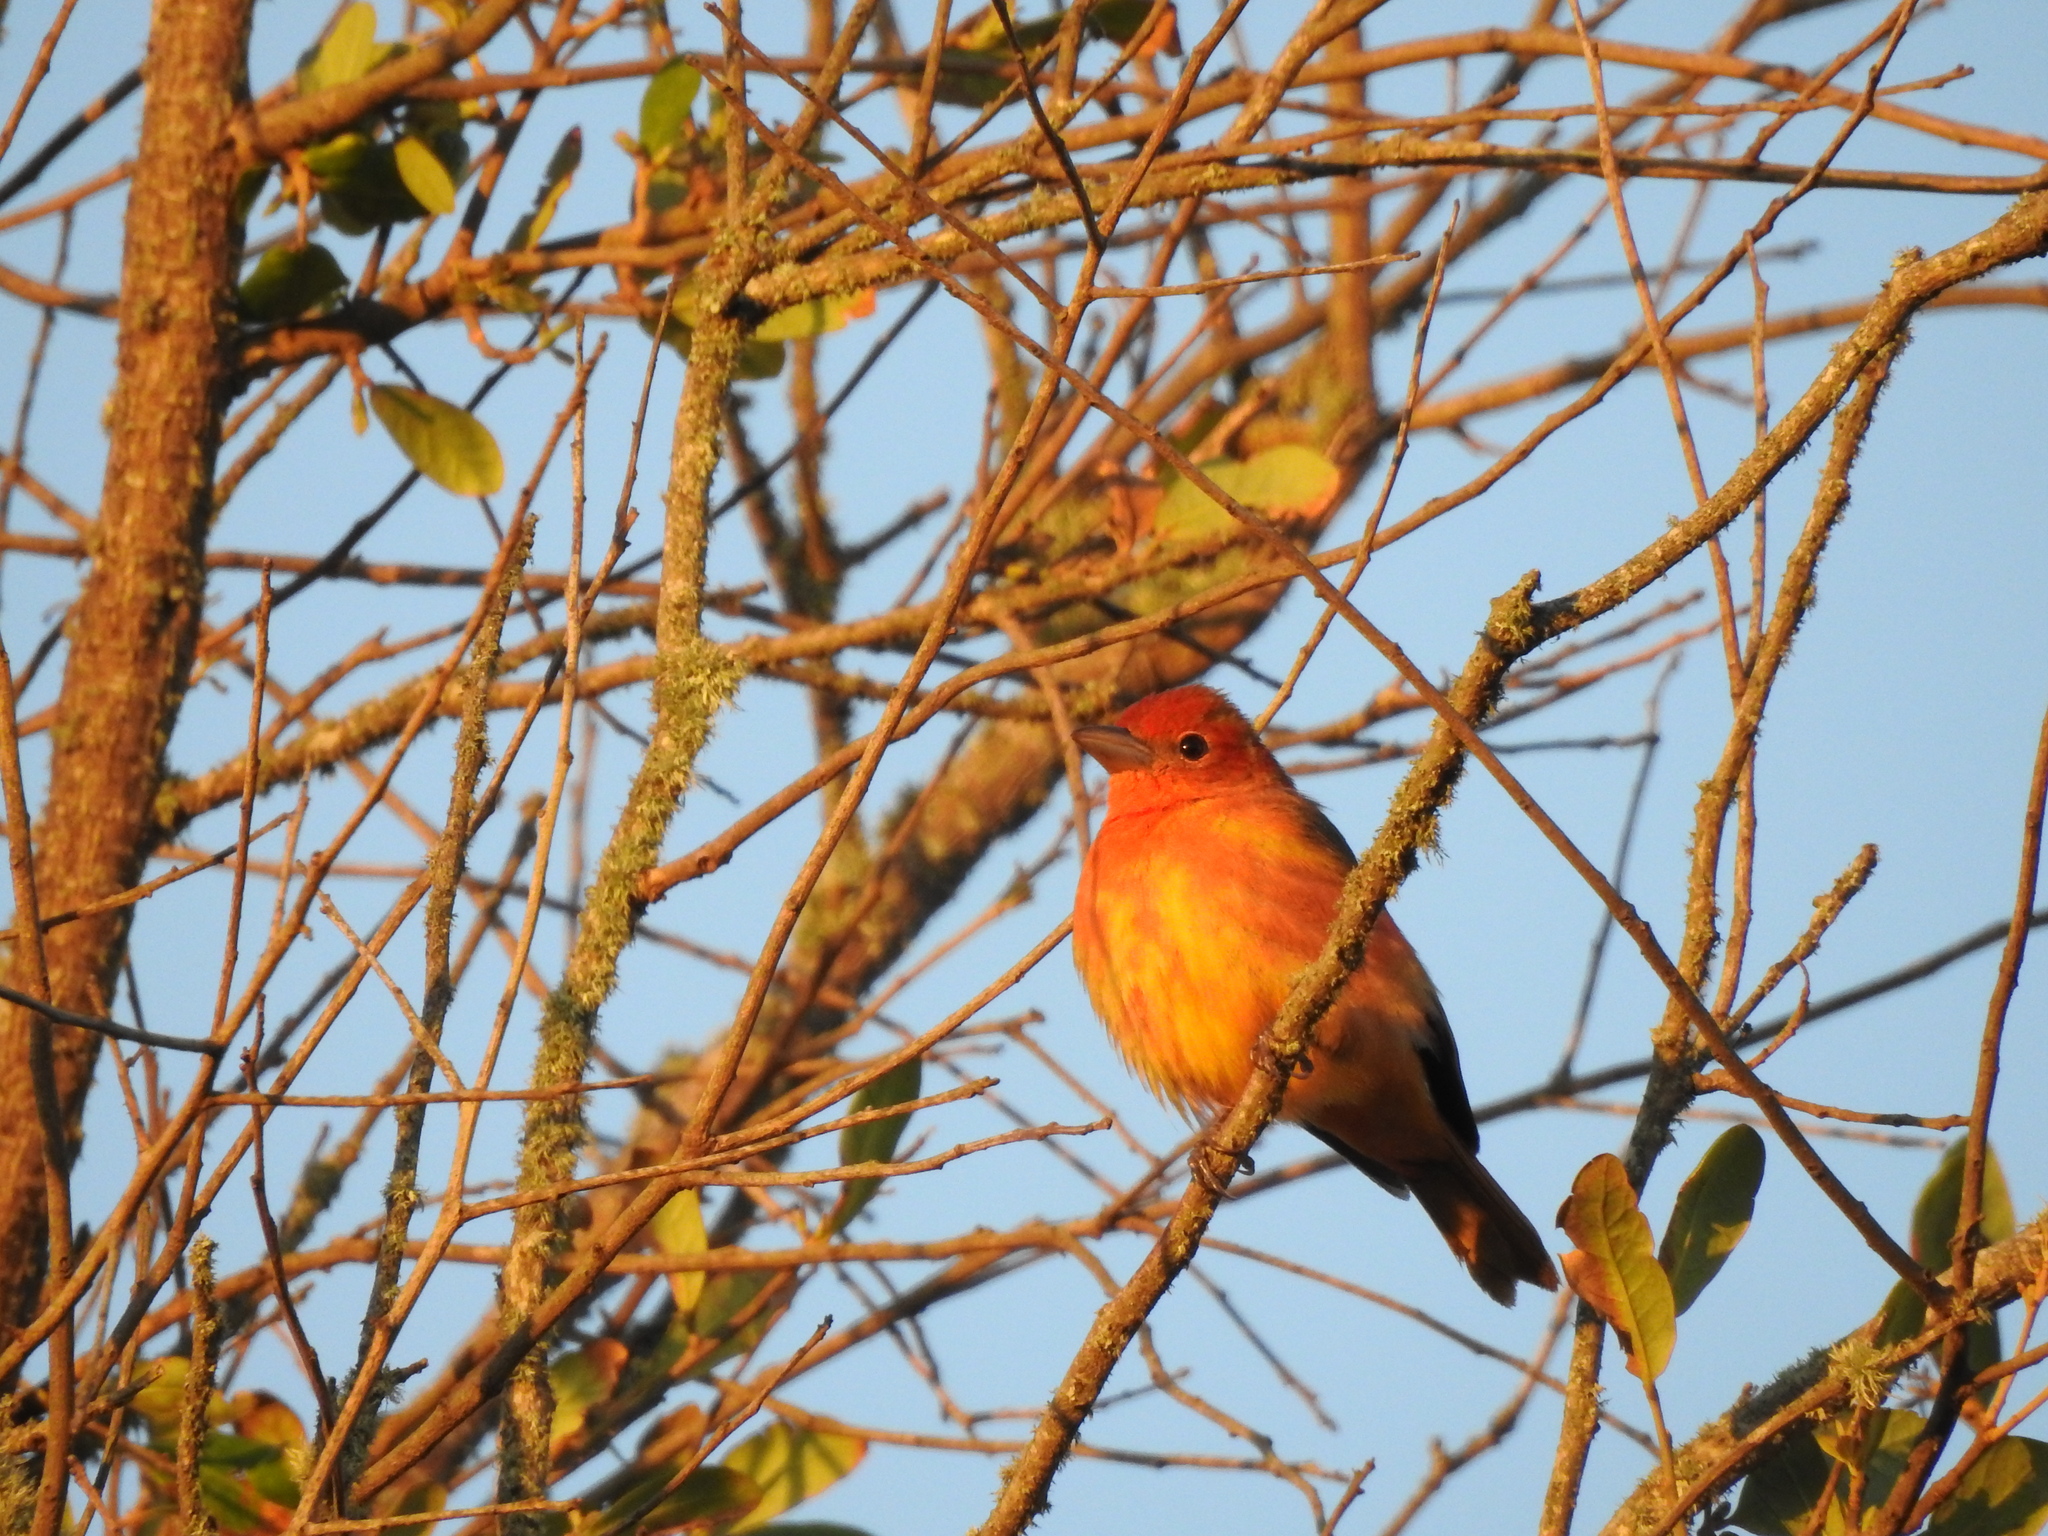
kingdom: Animalia
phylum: Chordata
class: Aves
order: Passeriformes
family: Cardinalidae
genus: Piranga
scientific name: Piranga rubra
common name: Summer tanager
